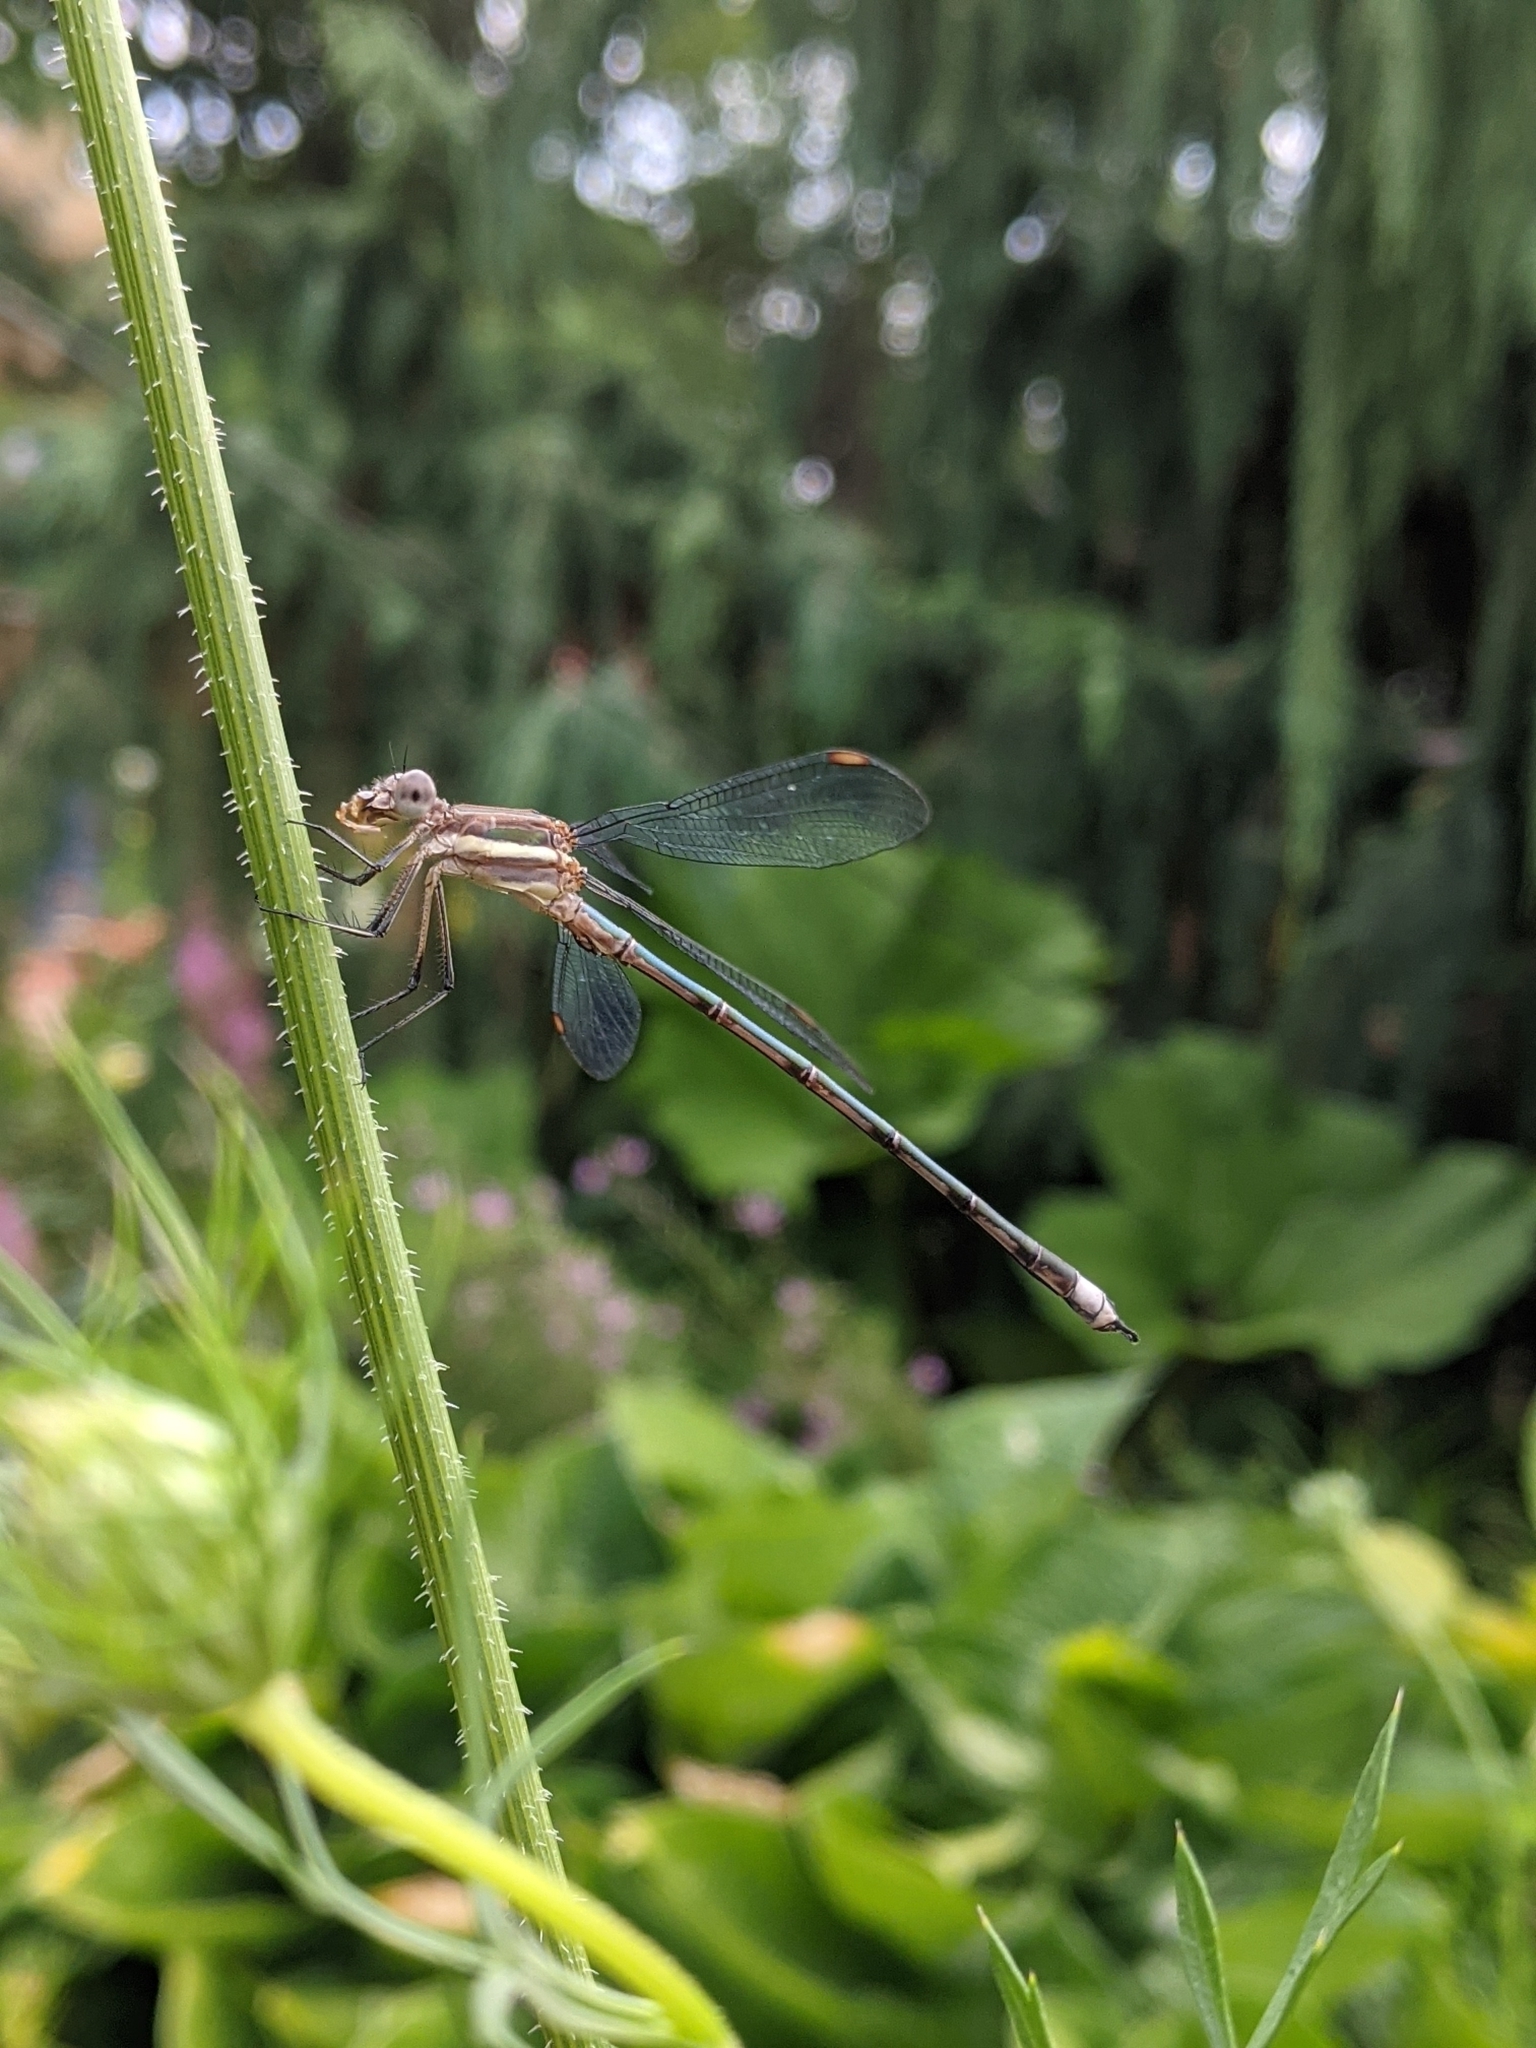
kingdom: Animalia
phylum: Arthropoda
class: Insecta
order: Odonata
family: Lestidae
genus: Archilestes
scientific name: Archilestes grandis
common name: Great spreadwing
